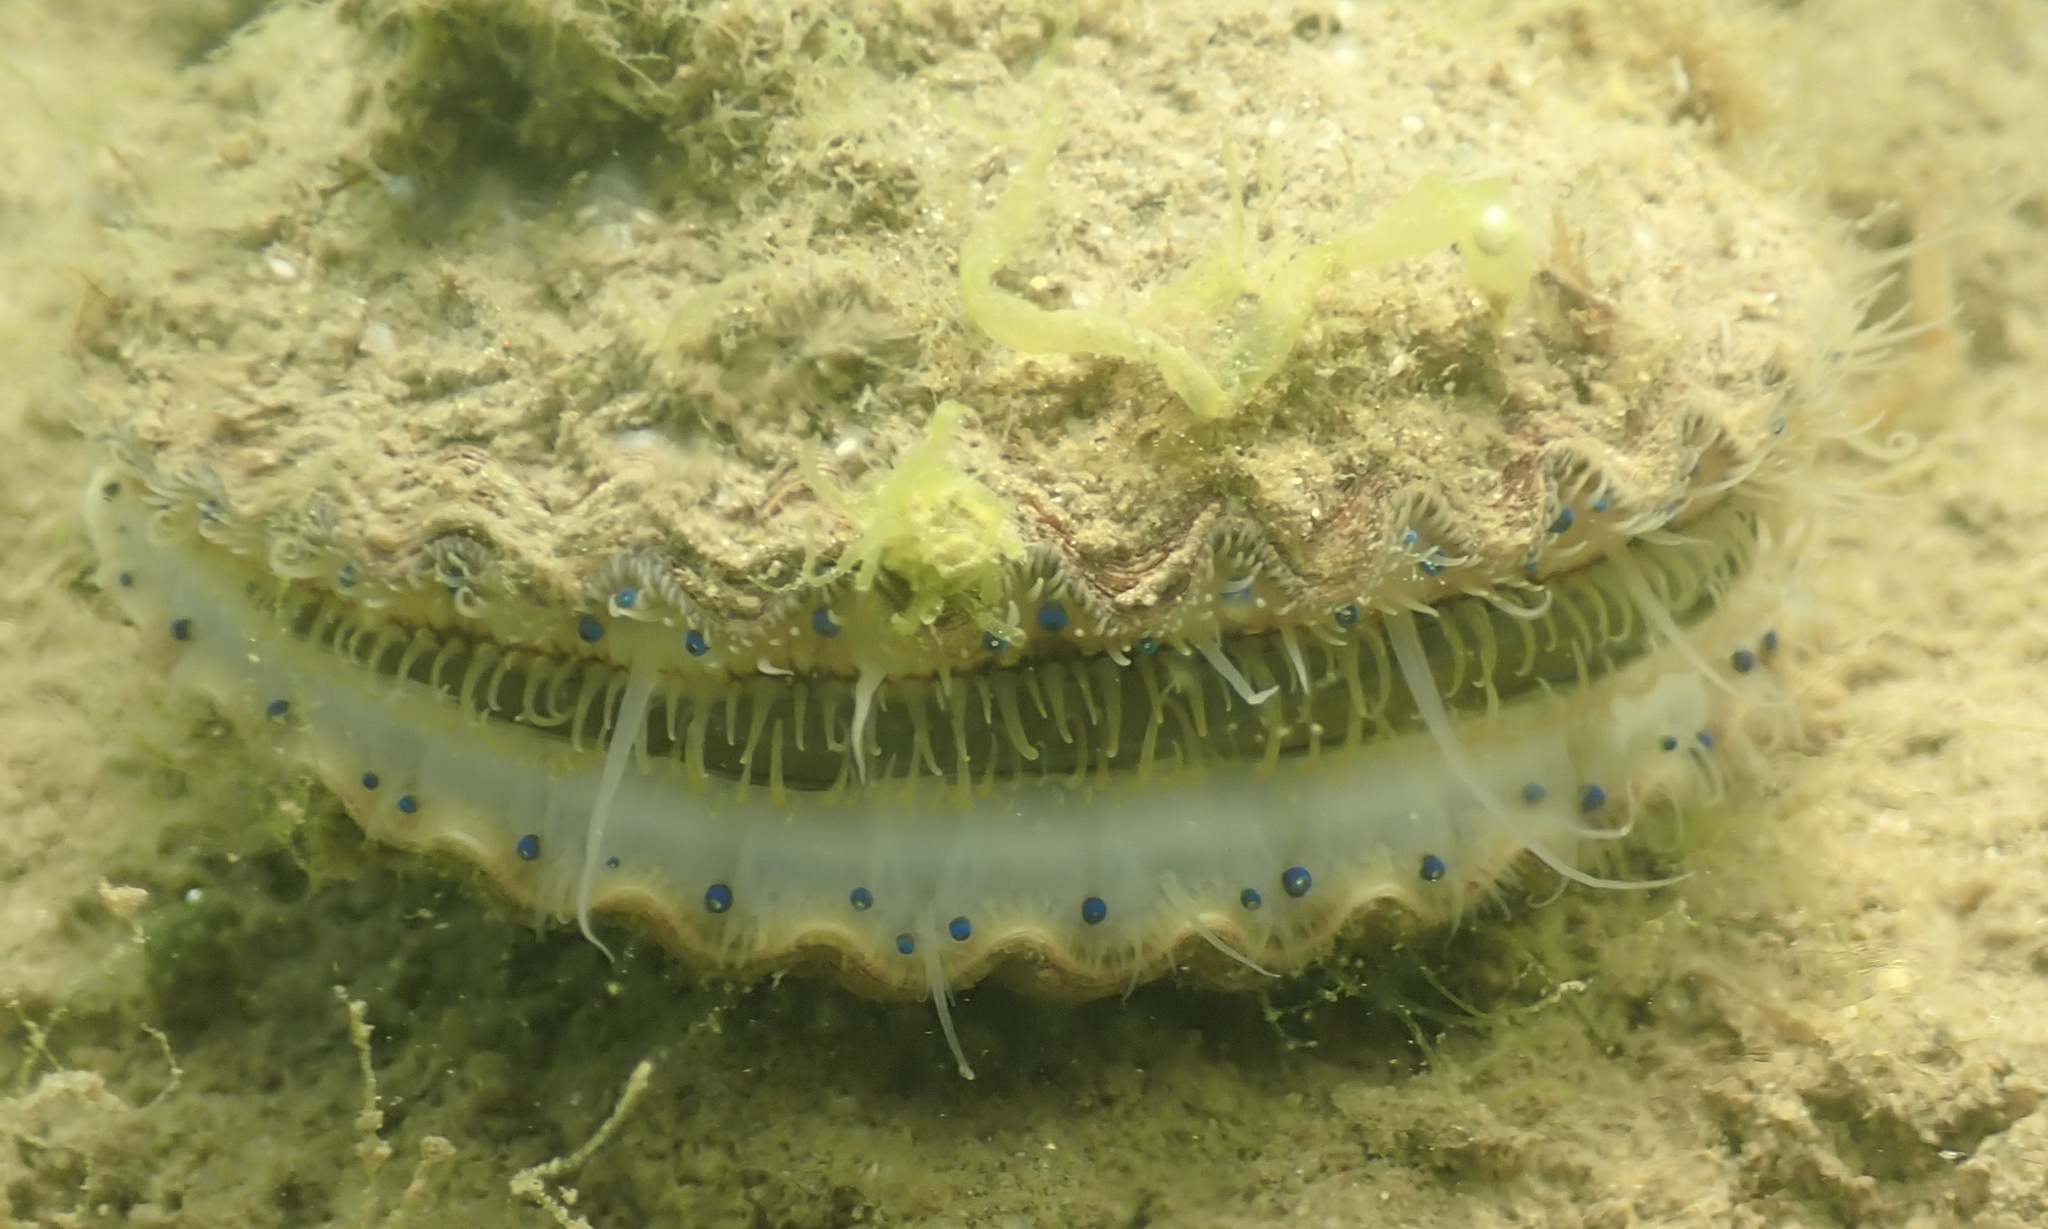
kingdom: Animalia
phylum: Mollusca
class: Bivalvia
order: Pectinida
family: Pectinidae
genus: Argopecten
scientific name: Argopecten irradians
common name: Atlantic bay scallop
